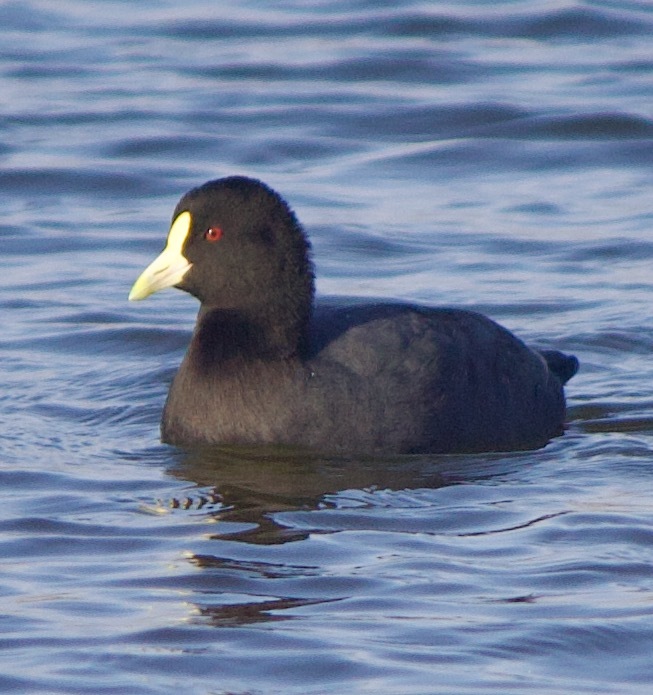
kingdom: Animalia
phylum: Chordata
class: Aves
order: Gruiformes
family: Rallidae
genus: Fulica
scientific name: Fulica leucoptera
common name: White-winged coot
